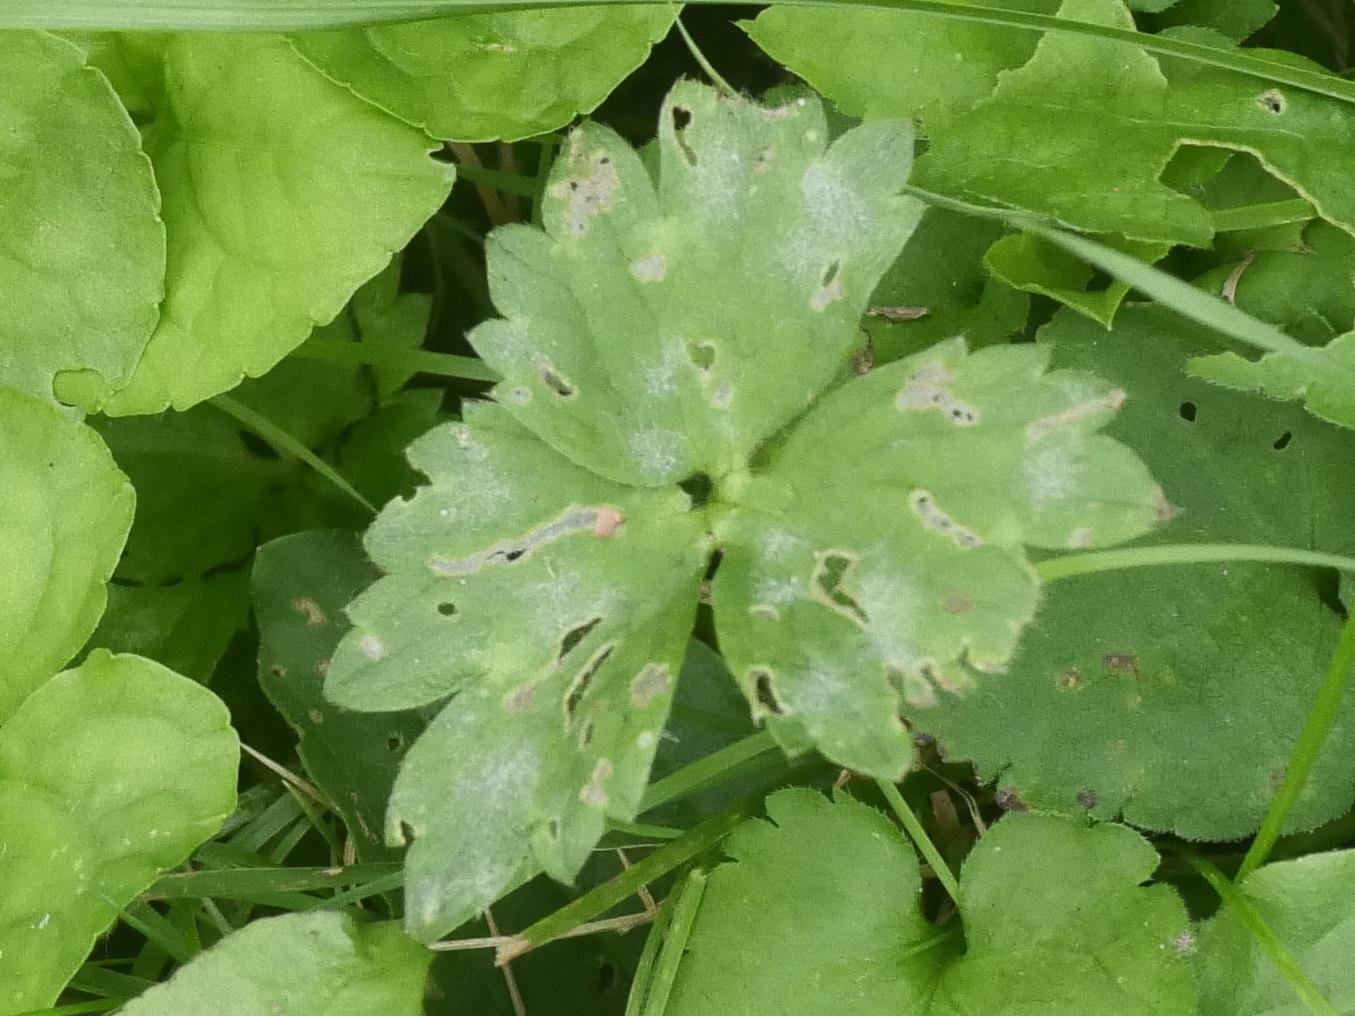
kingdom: Plantae
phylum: Tracheophyta
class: Magnoliopsida
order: Ranunculales
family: Ranunculaceae
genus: Ranunculus
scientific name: Ranunculus repens
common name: Creeping buttercup
